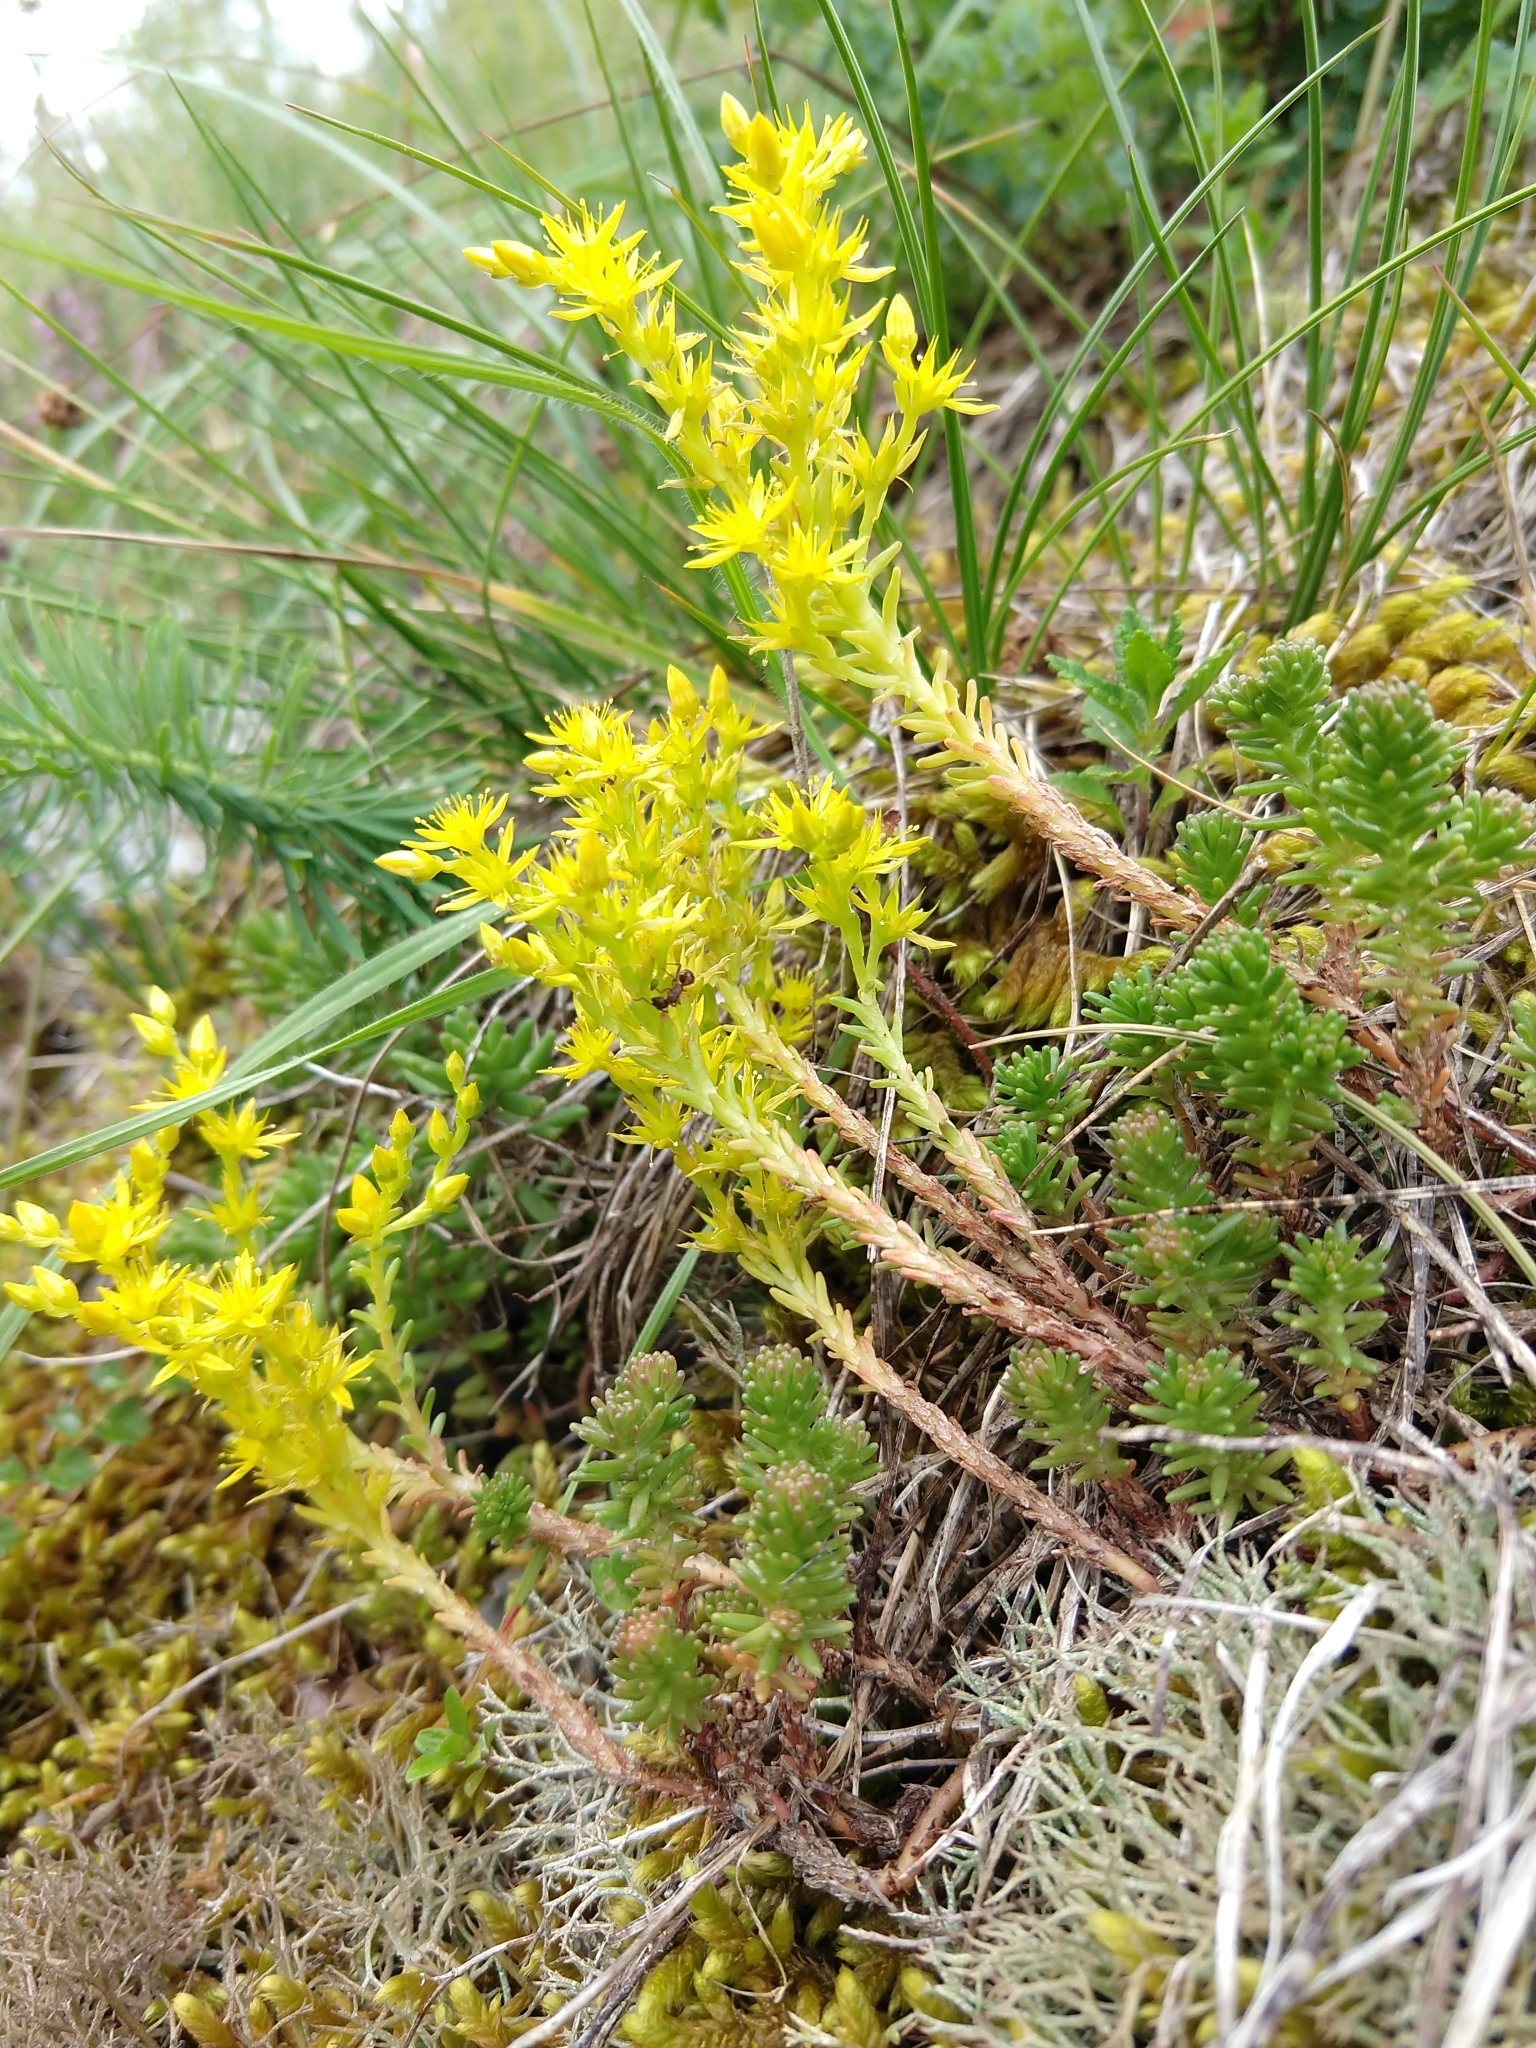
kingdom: Plantae
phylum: Tracheophyta
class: Magnoliopsida
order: Saxifragales
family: Crassulaceae
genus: Sedum
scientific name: Sedum sexangulare
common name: Tasteless stonecrop
